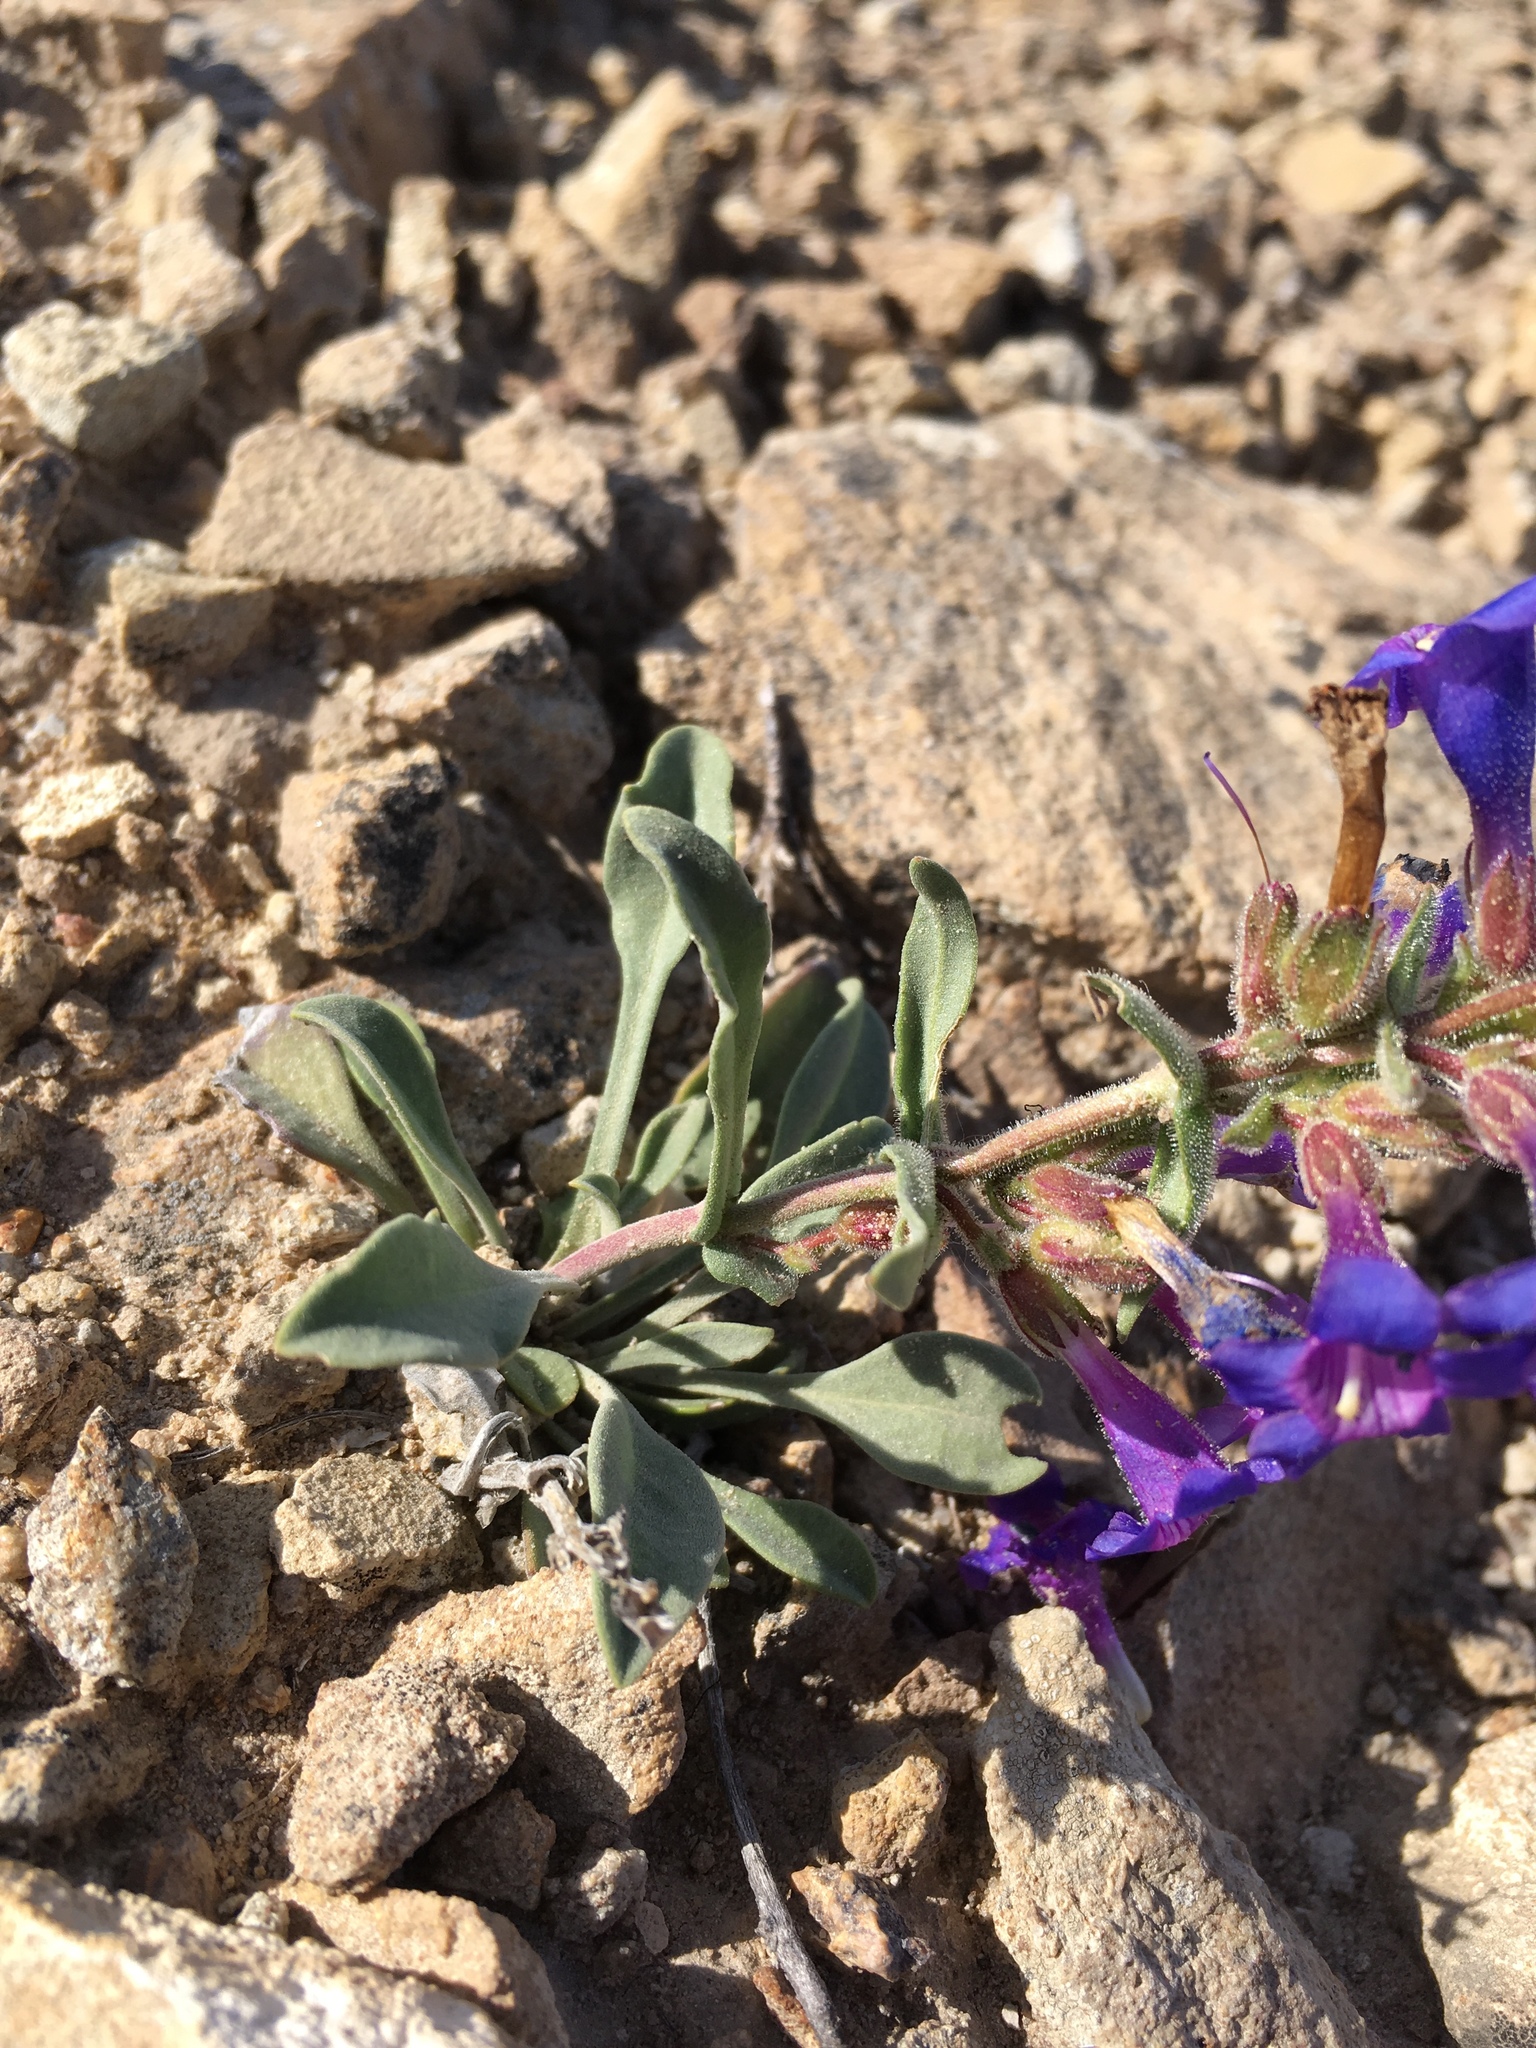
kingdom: Plantae
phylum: Tracheophyta
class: Magnoliopsida
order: Lamiales
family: Plantaginaceae
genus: Penstemon
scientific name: Penstemon moffattii
